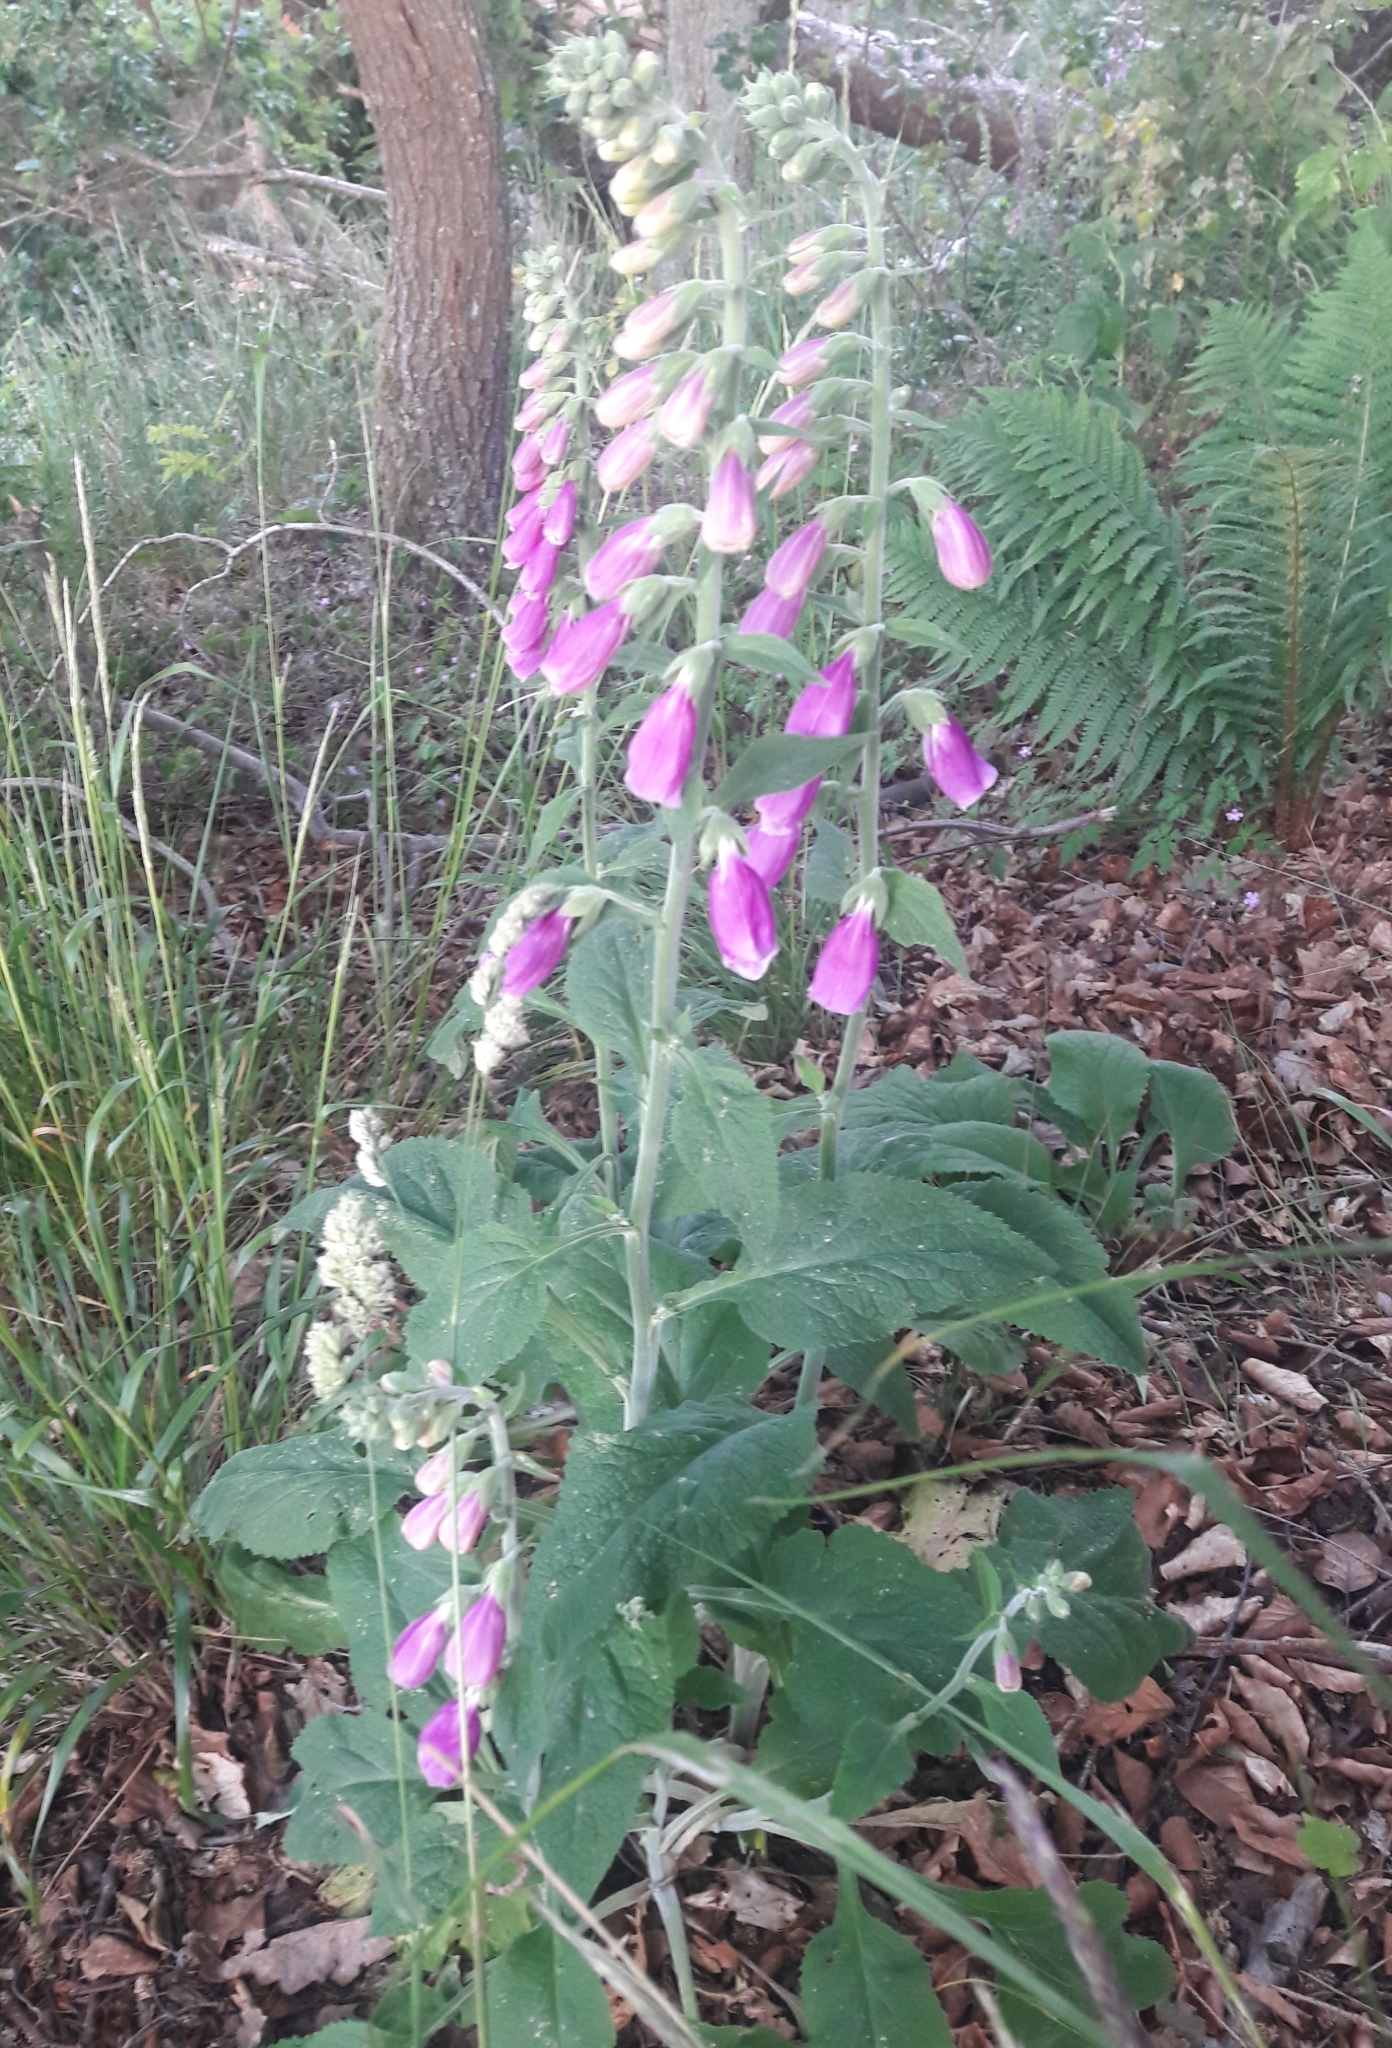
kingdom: Plantae
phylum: Tracheophyta
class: Magnoliopsida
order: Lamiales
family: Plantaginaceae
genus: Digitalis
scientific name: Digitalis purpurea
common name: Foxglove
